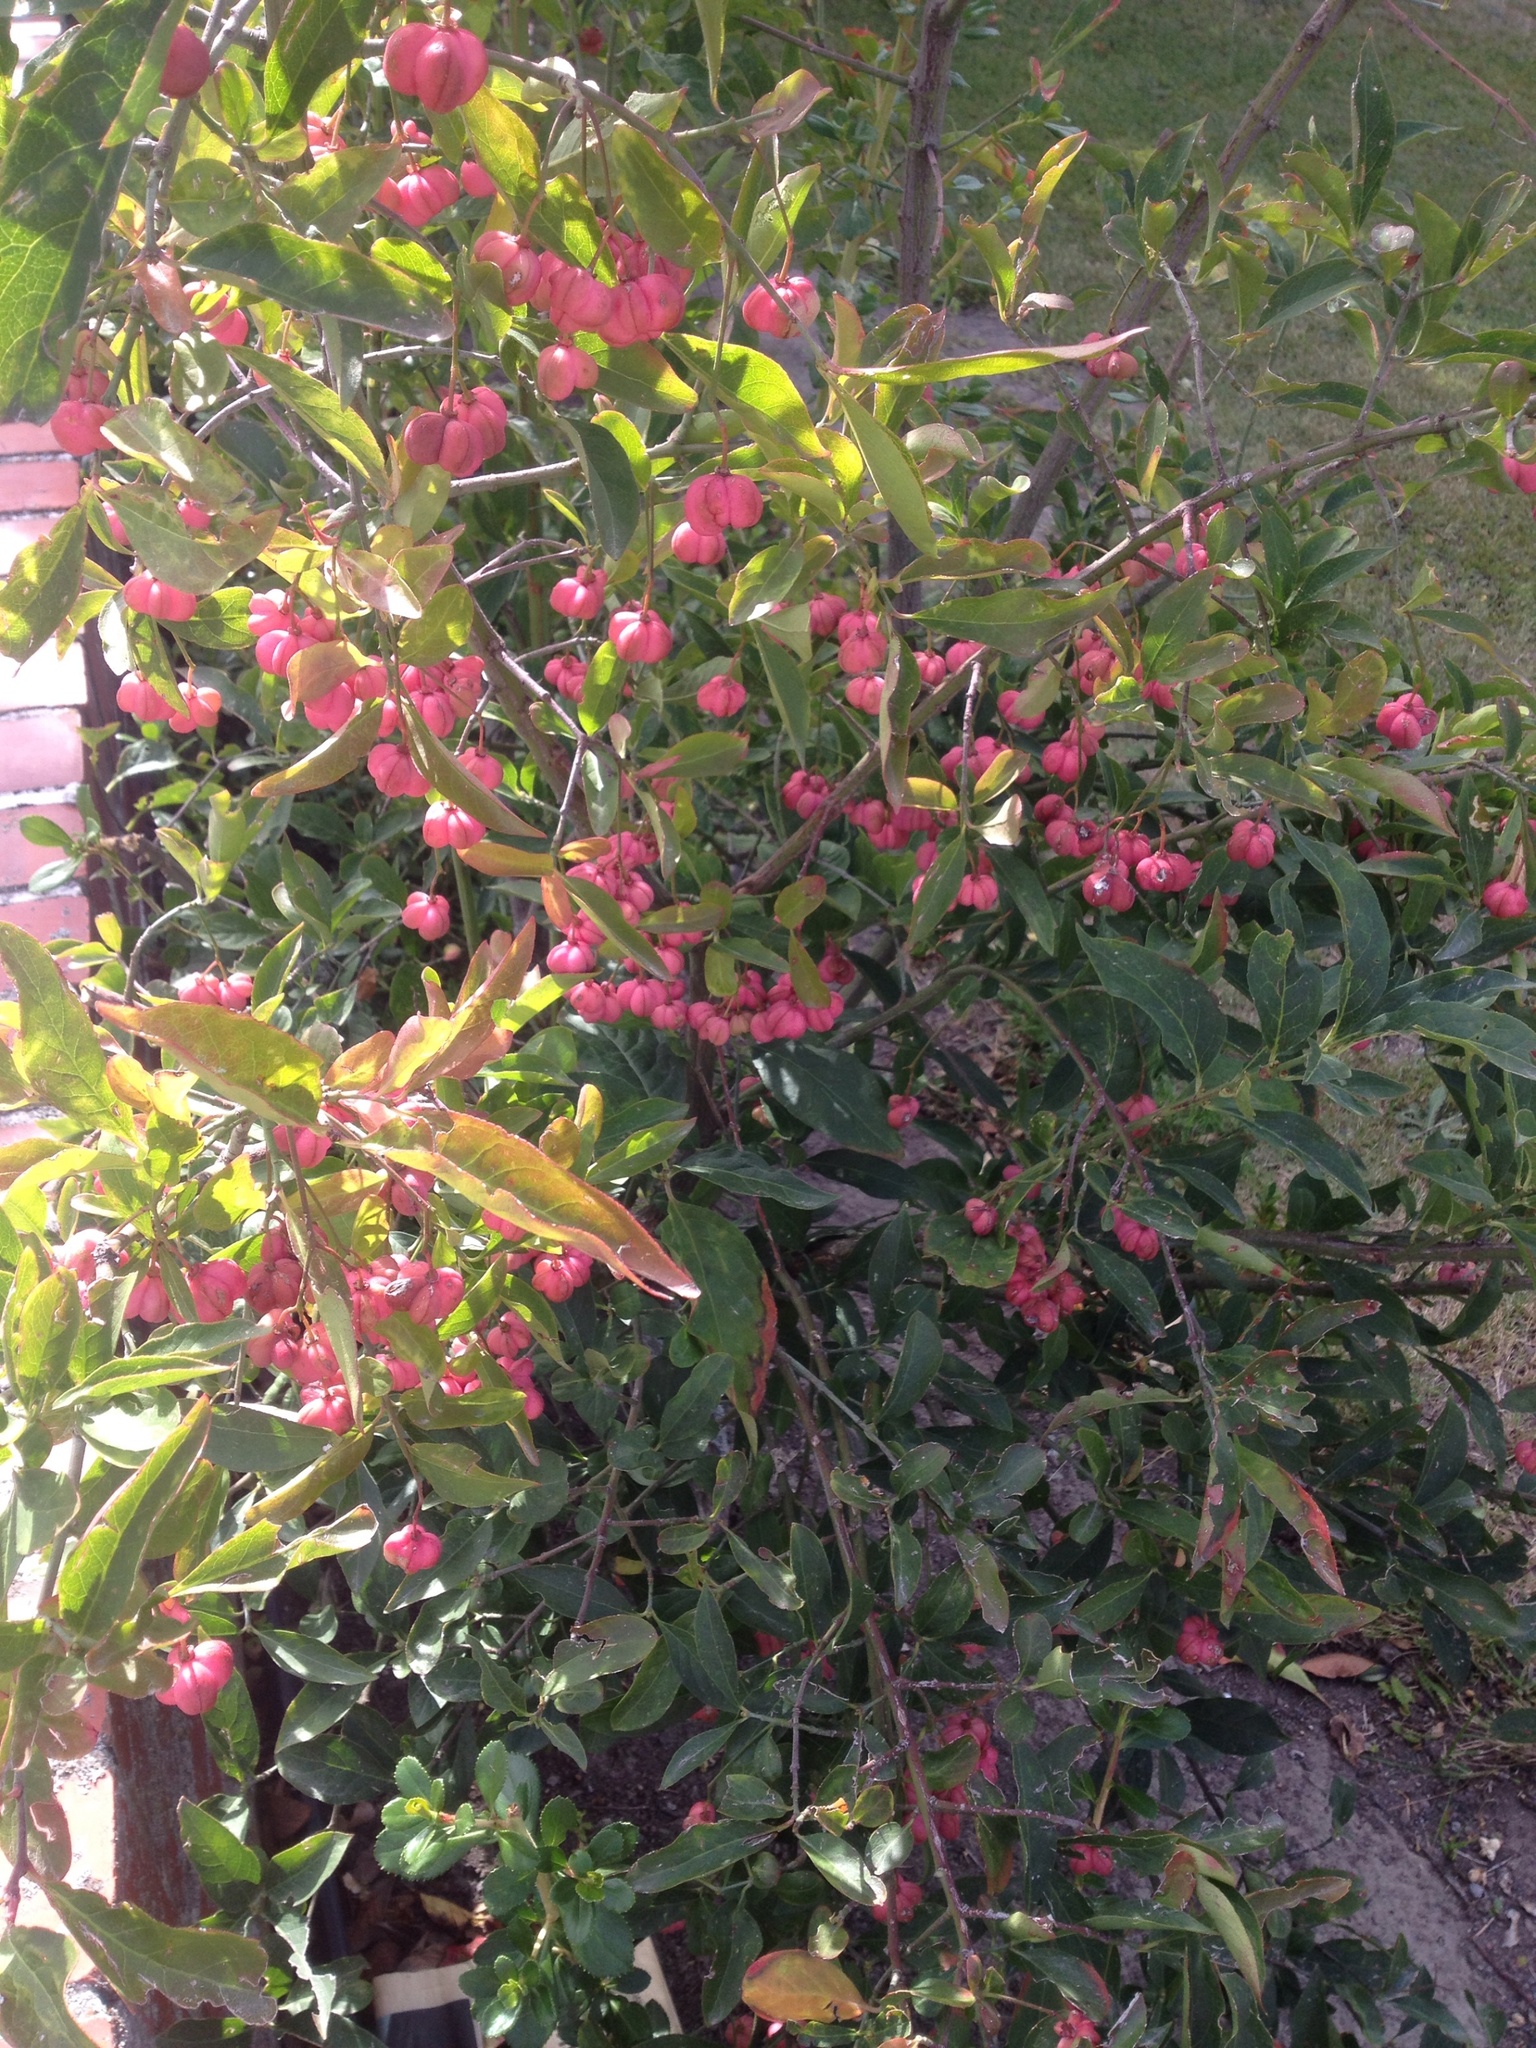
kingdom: Plantae
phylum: Tracheophyta
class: Magnoliopsida
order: Celastrales
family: Celastraceae
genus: Euonymus
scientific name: Euonymus europaeus
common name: Spindle
